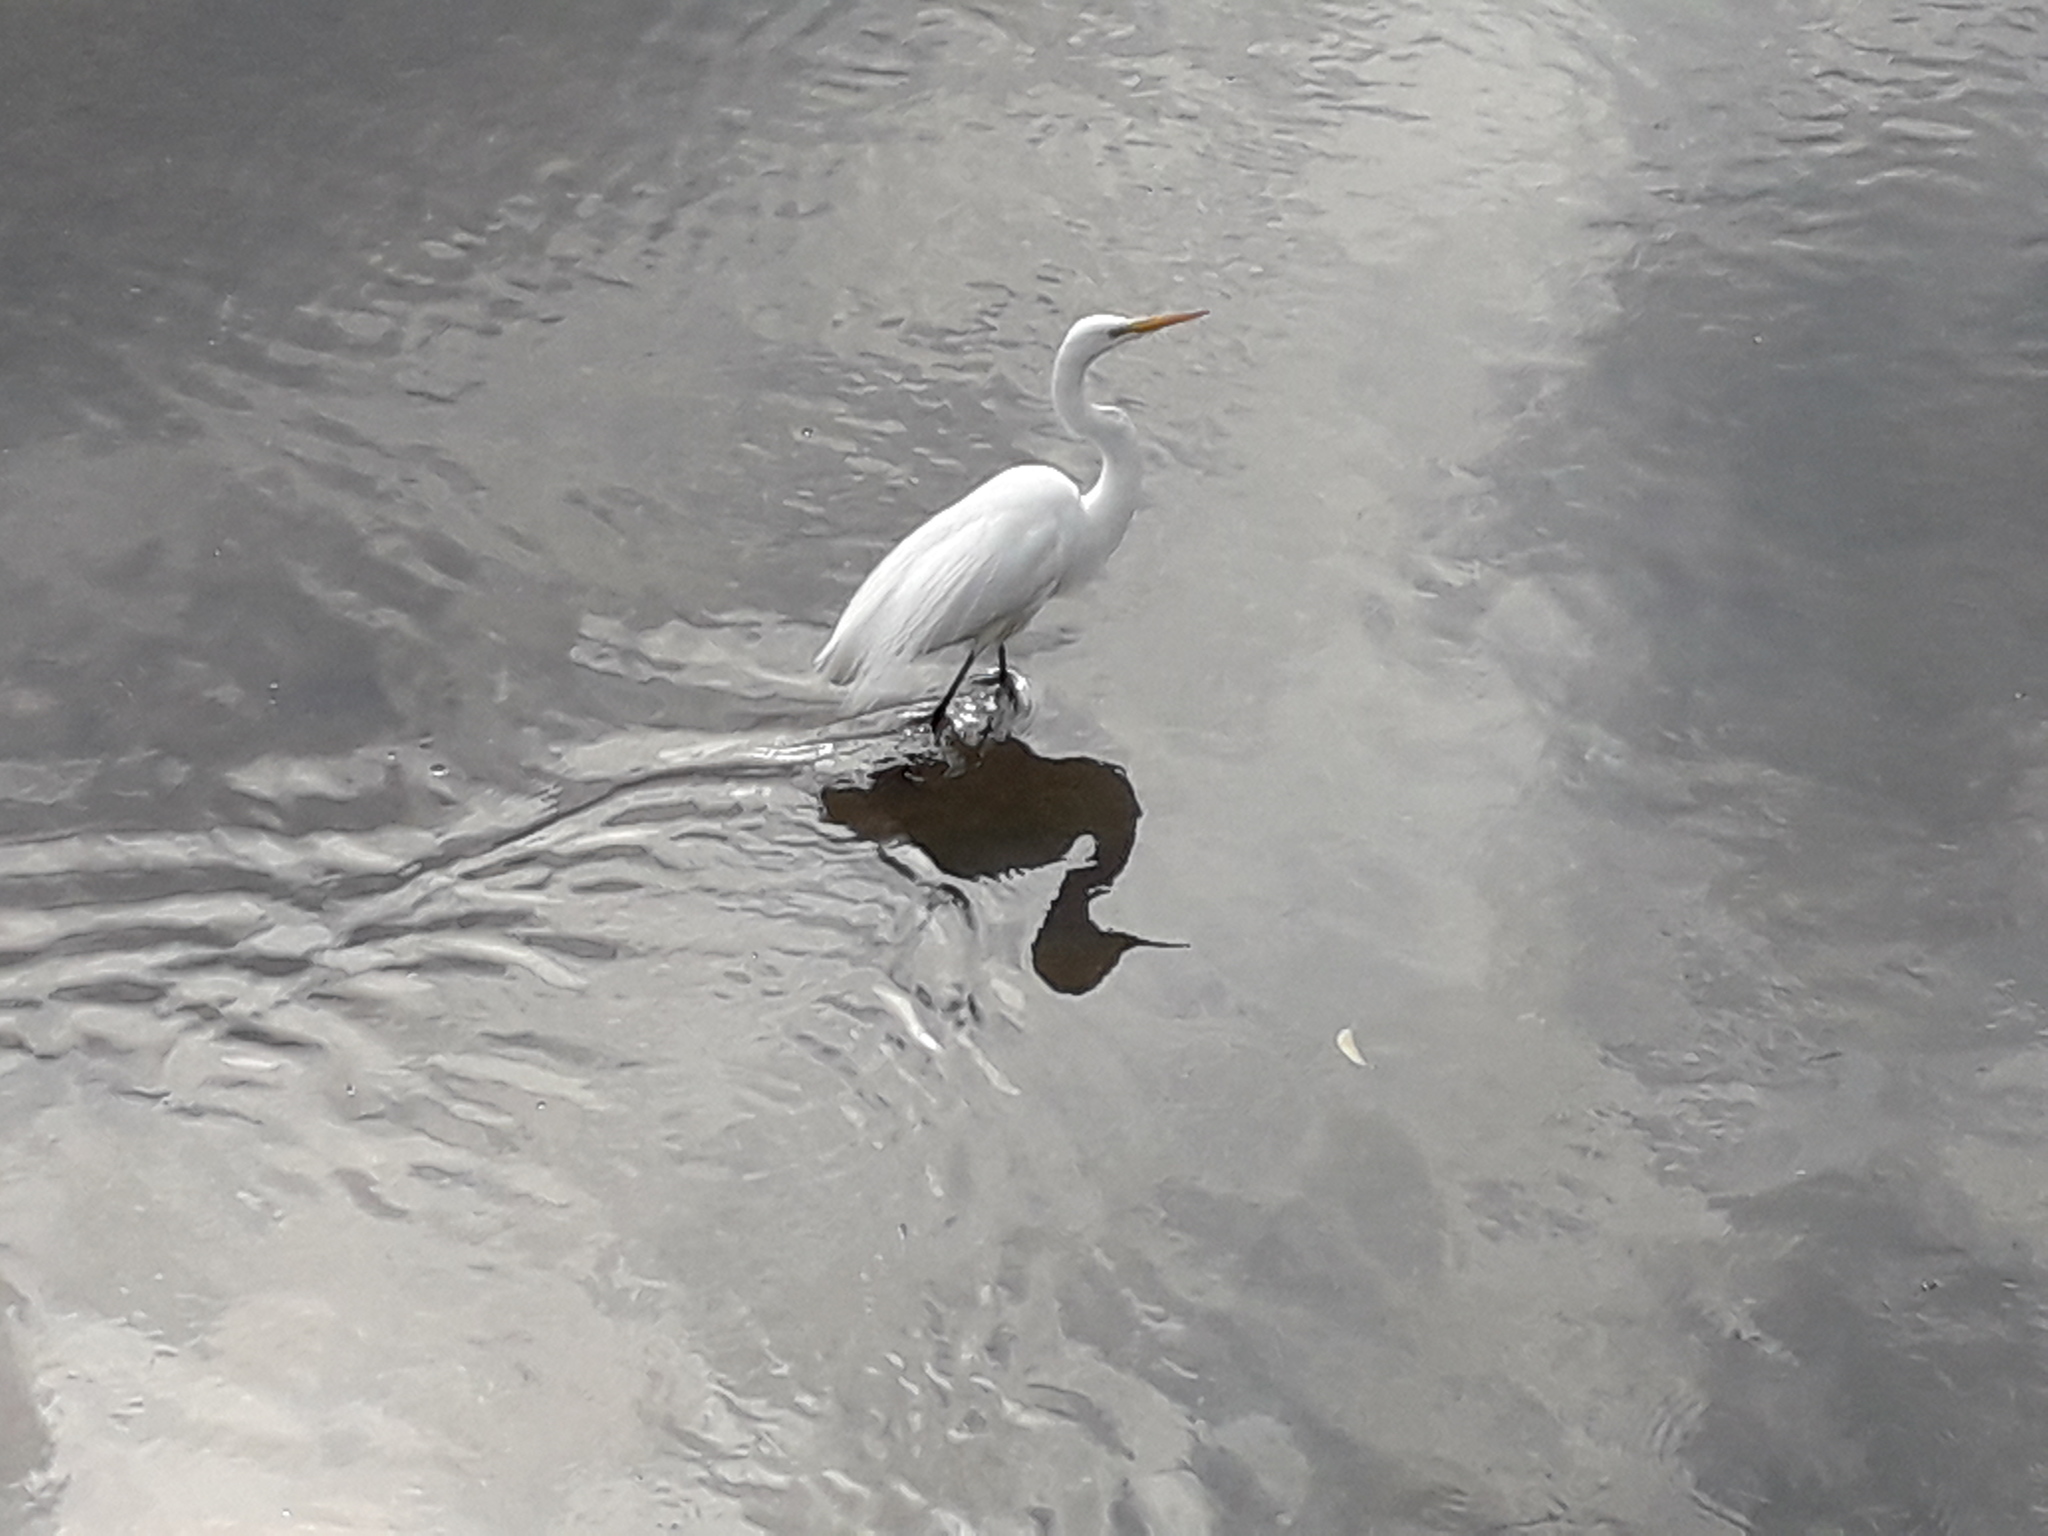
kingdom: Animalia
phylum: Chordata
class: Aves
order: Pelecaniformes
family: Ardeidae
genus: Ardea
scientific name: Ardea alba
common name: Great egret
